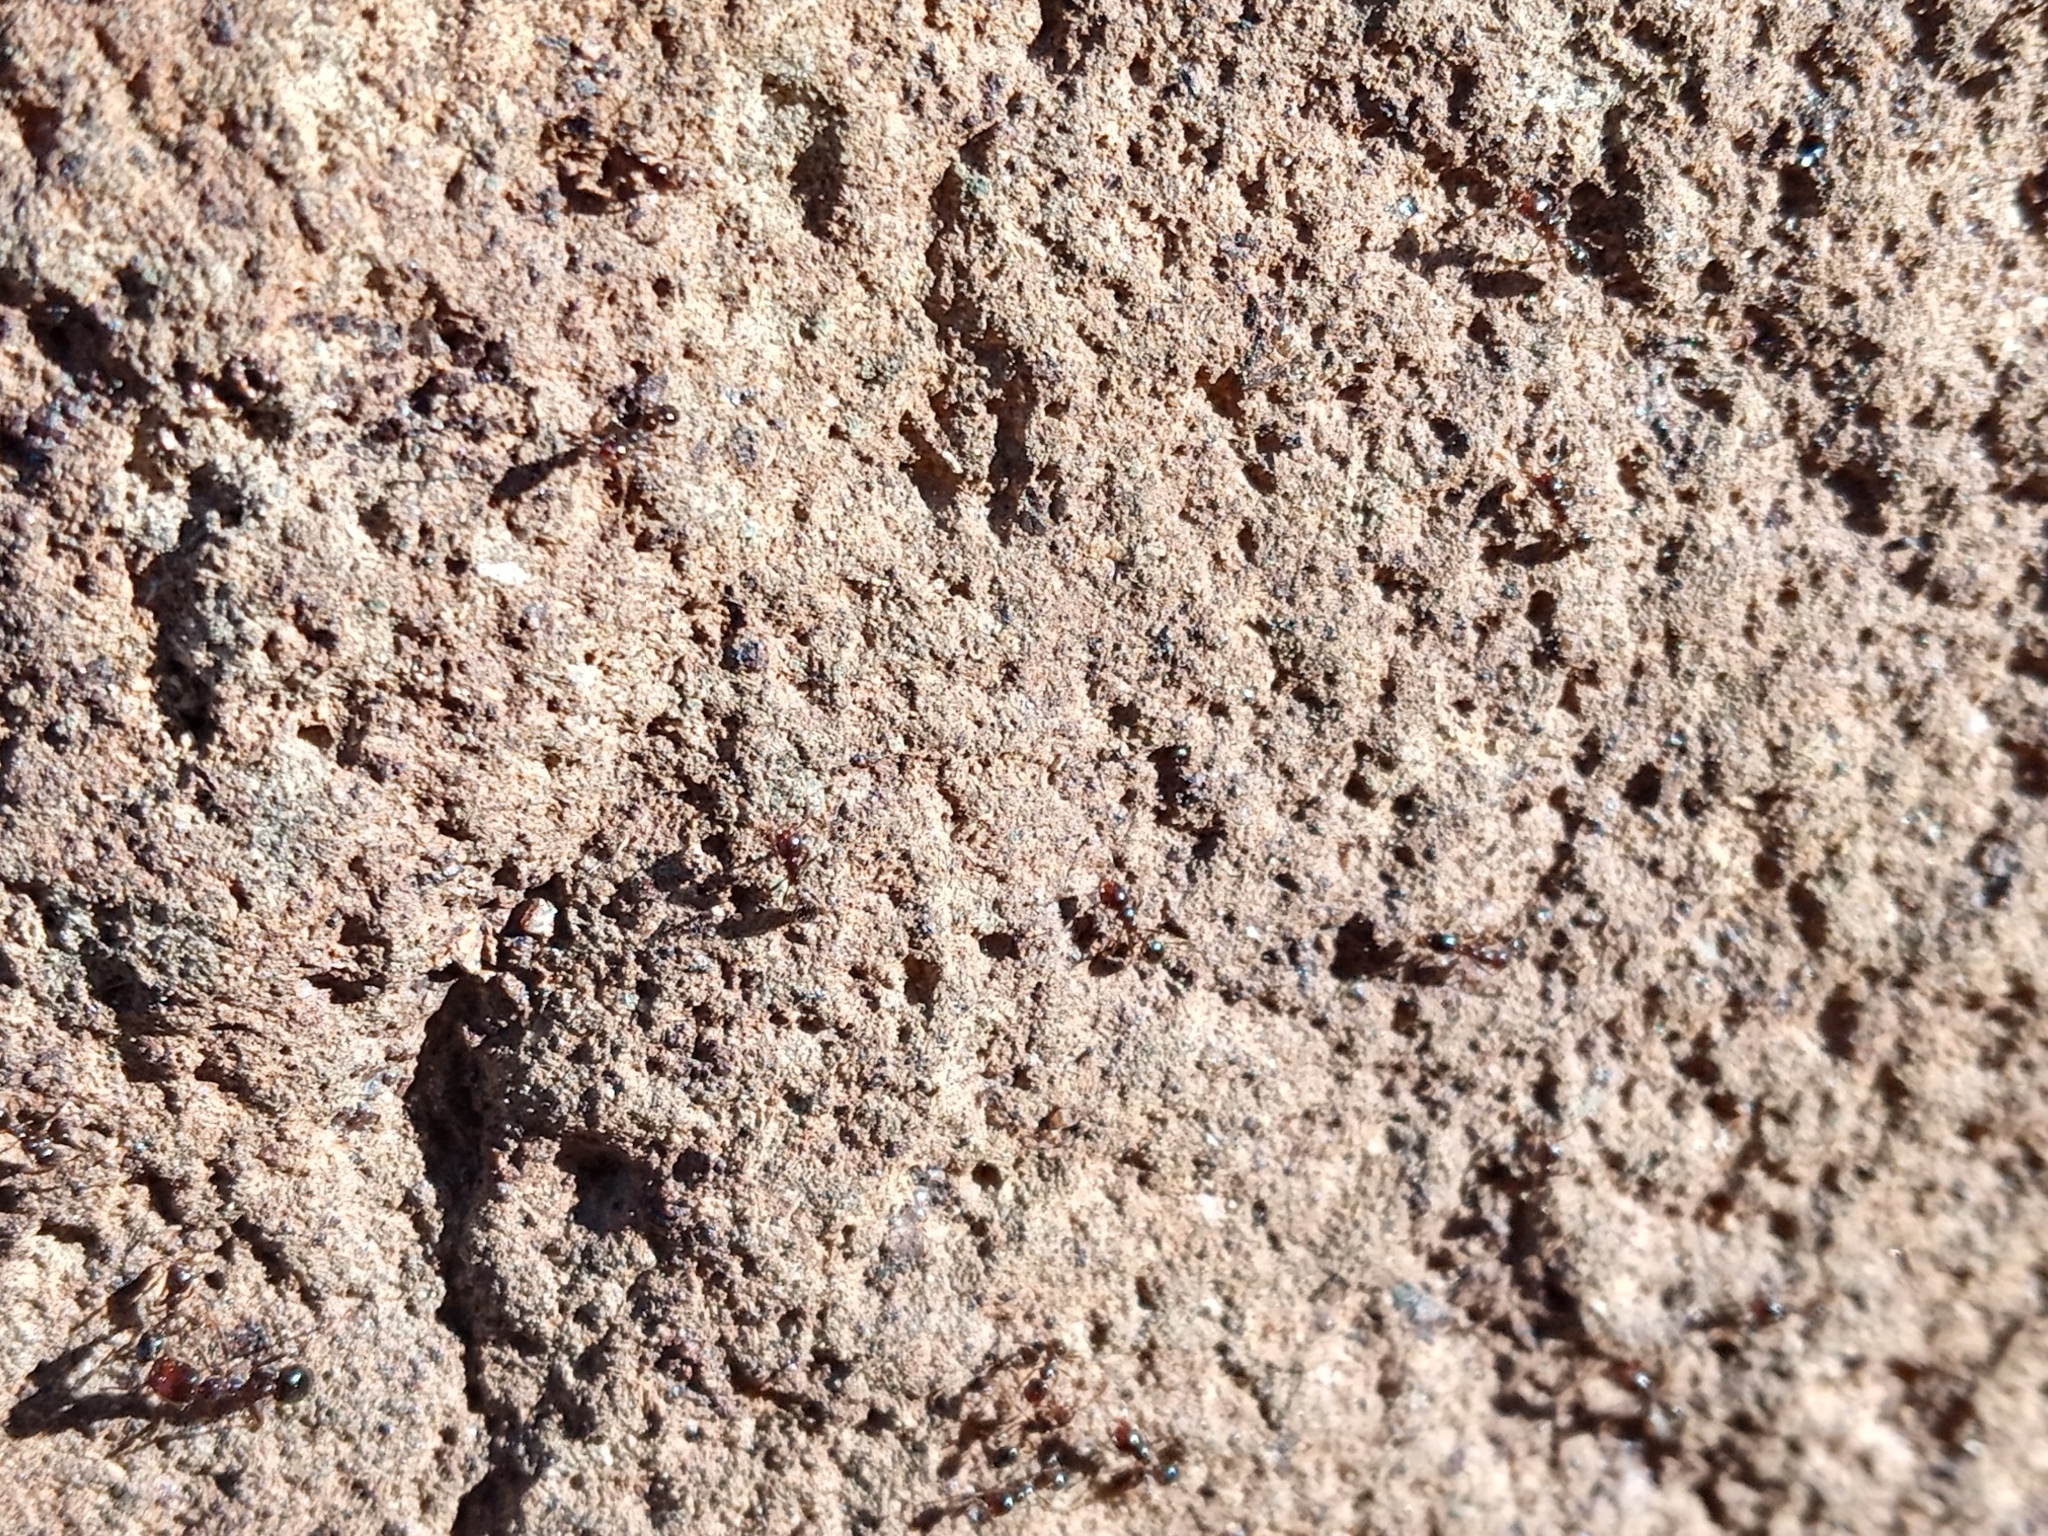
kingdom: Animalia
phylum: Arthropoda
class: Insecta
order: Hymenoptera
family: Formicidae
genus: Solenopsis
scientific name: Solenopsis xyloni
